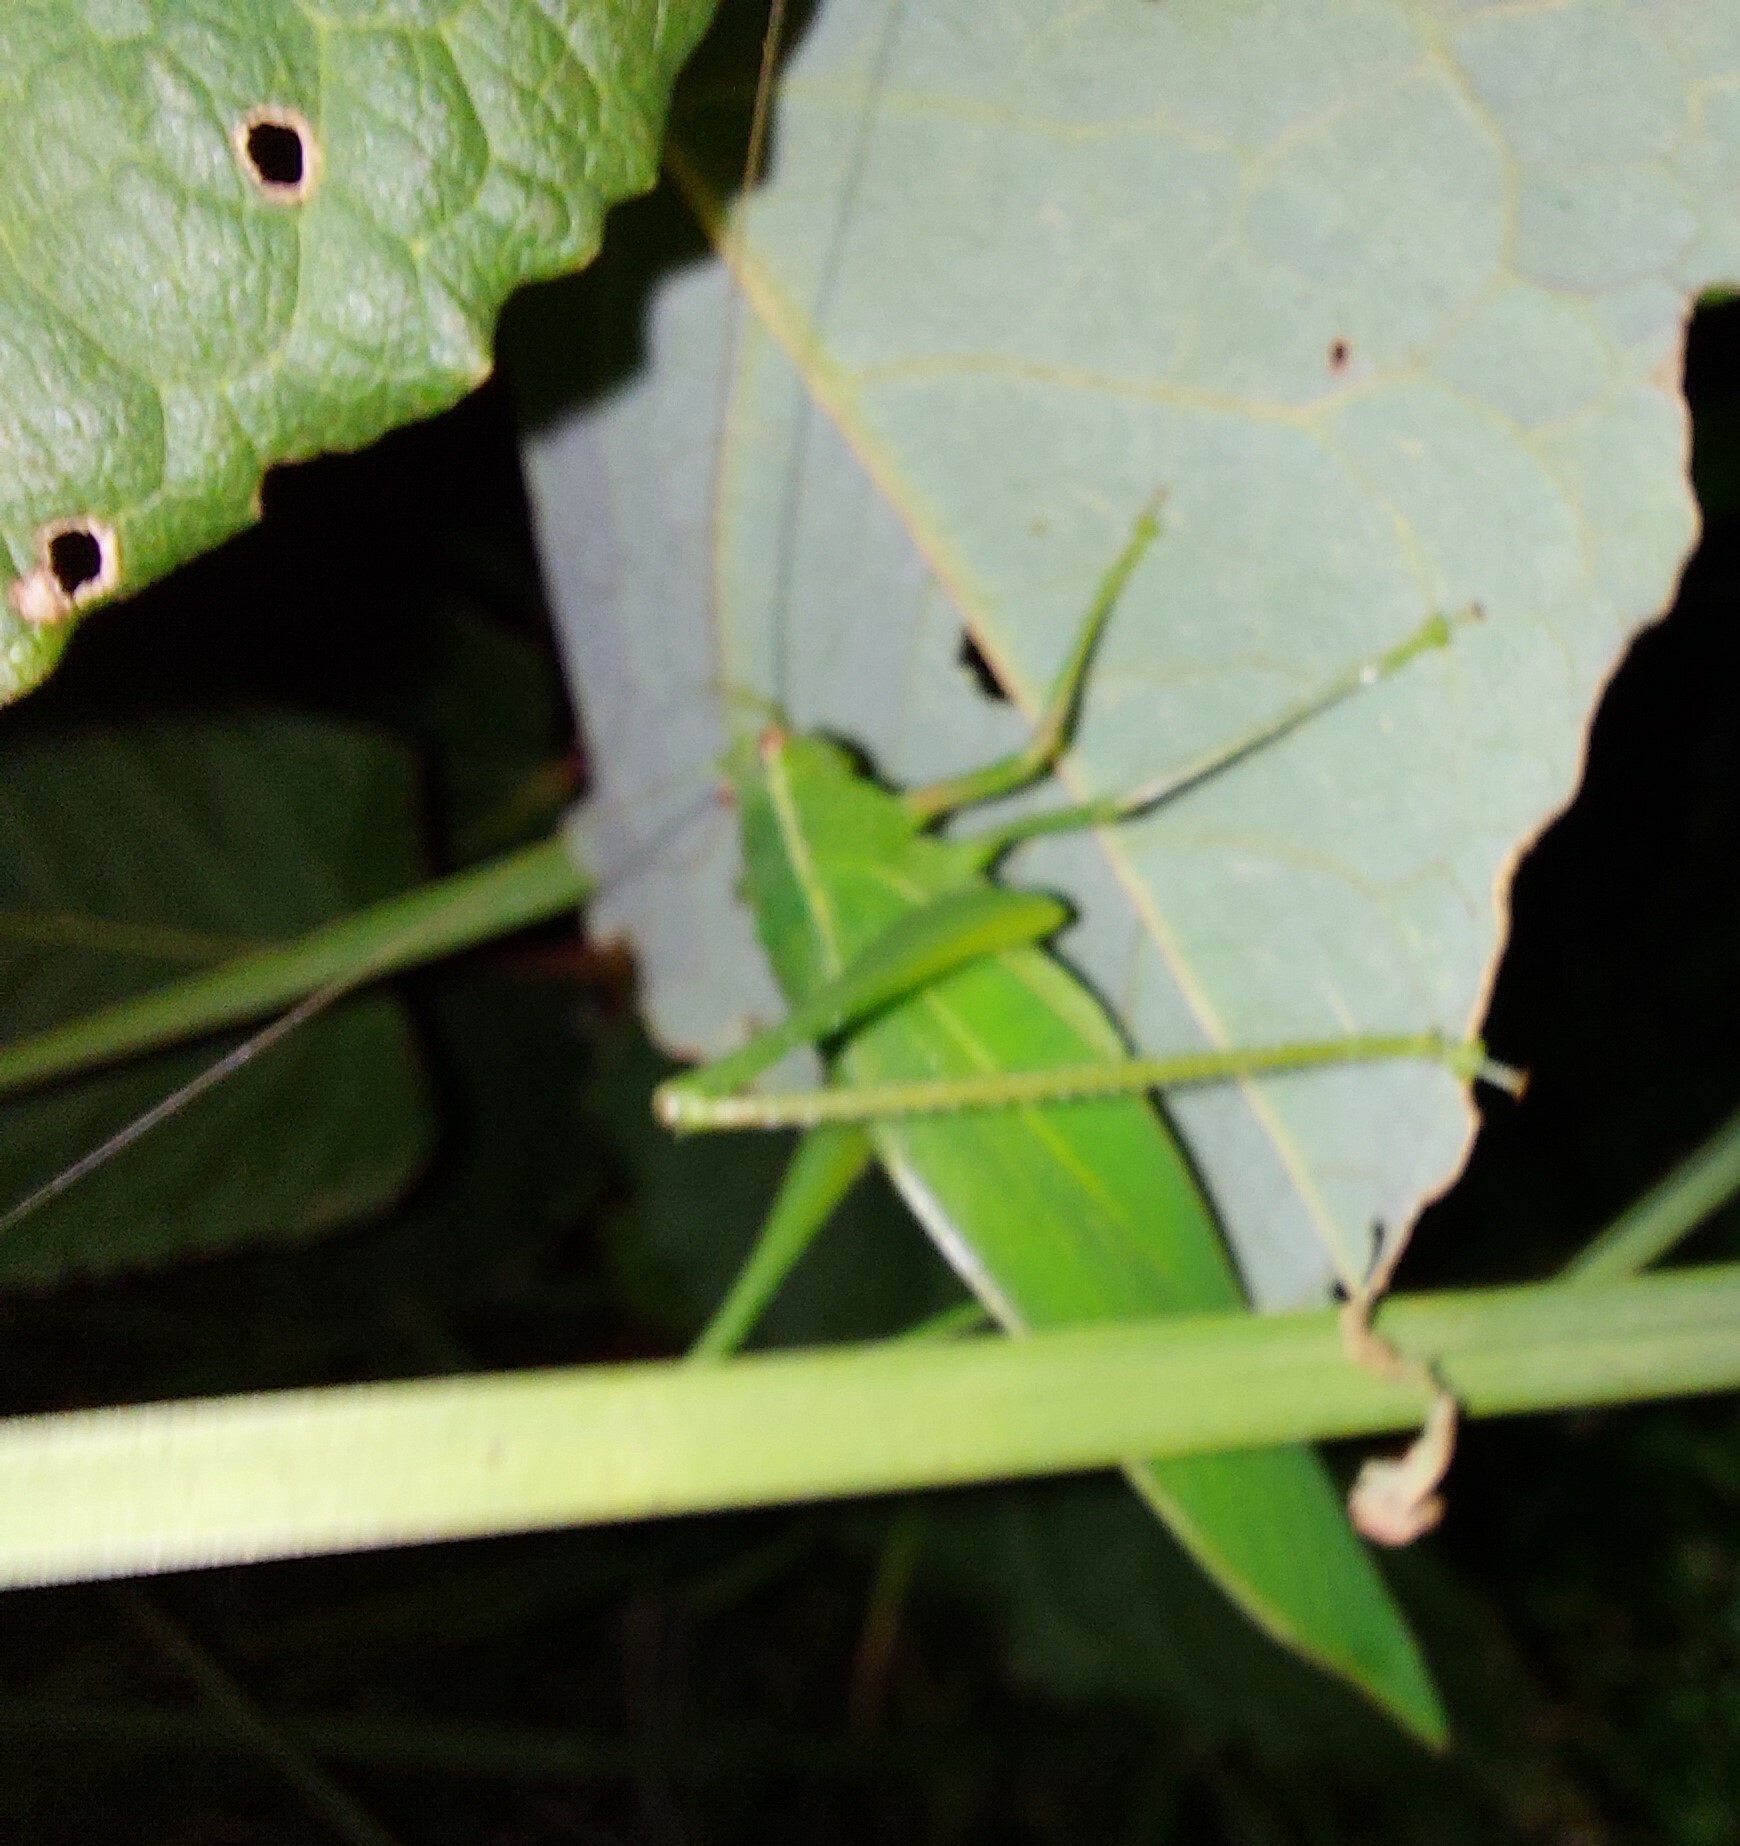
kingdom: Animalia
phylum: Arthropoda
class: Insecta
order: Orthoptera
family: Tettigoniidae
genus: Caedicia
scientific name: Caedicia simplex
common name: Common garden katydid
